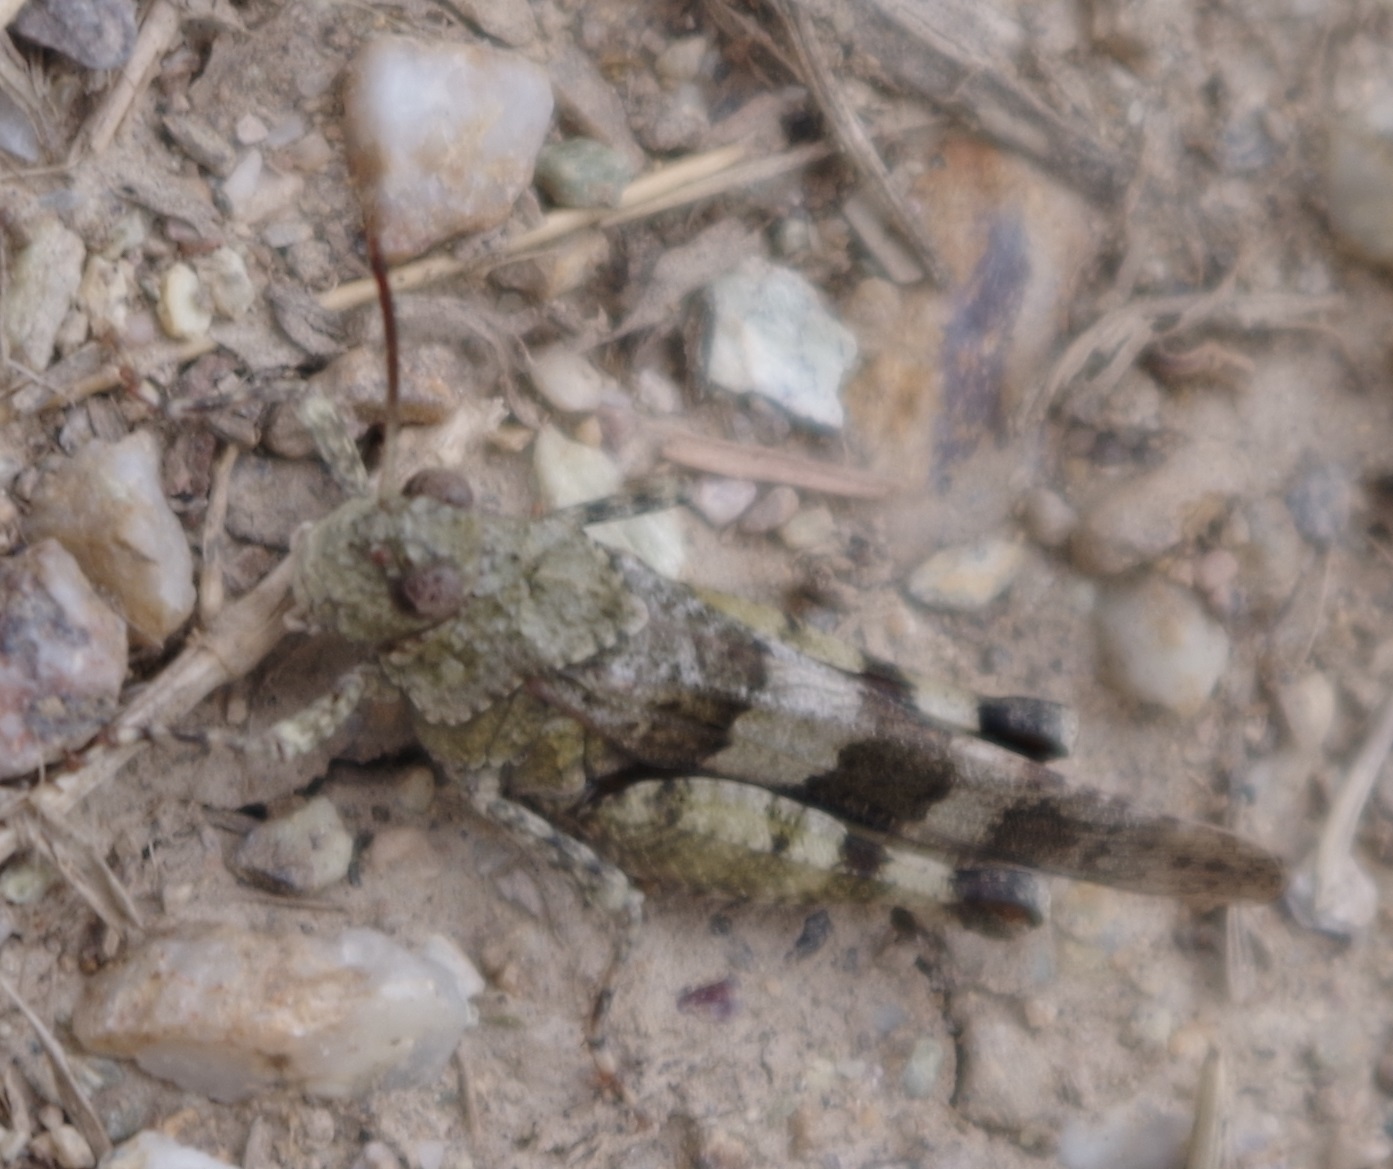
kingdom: Animalia
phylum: Arthropoda
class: Insecta
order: Orthoptera
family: Acrididae
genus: Oedipoda
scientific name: Oedipoda caerulescens
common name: Blue-winged grasshopper
